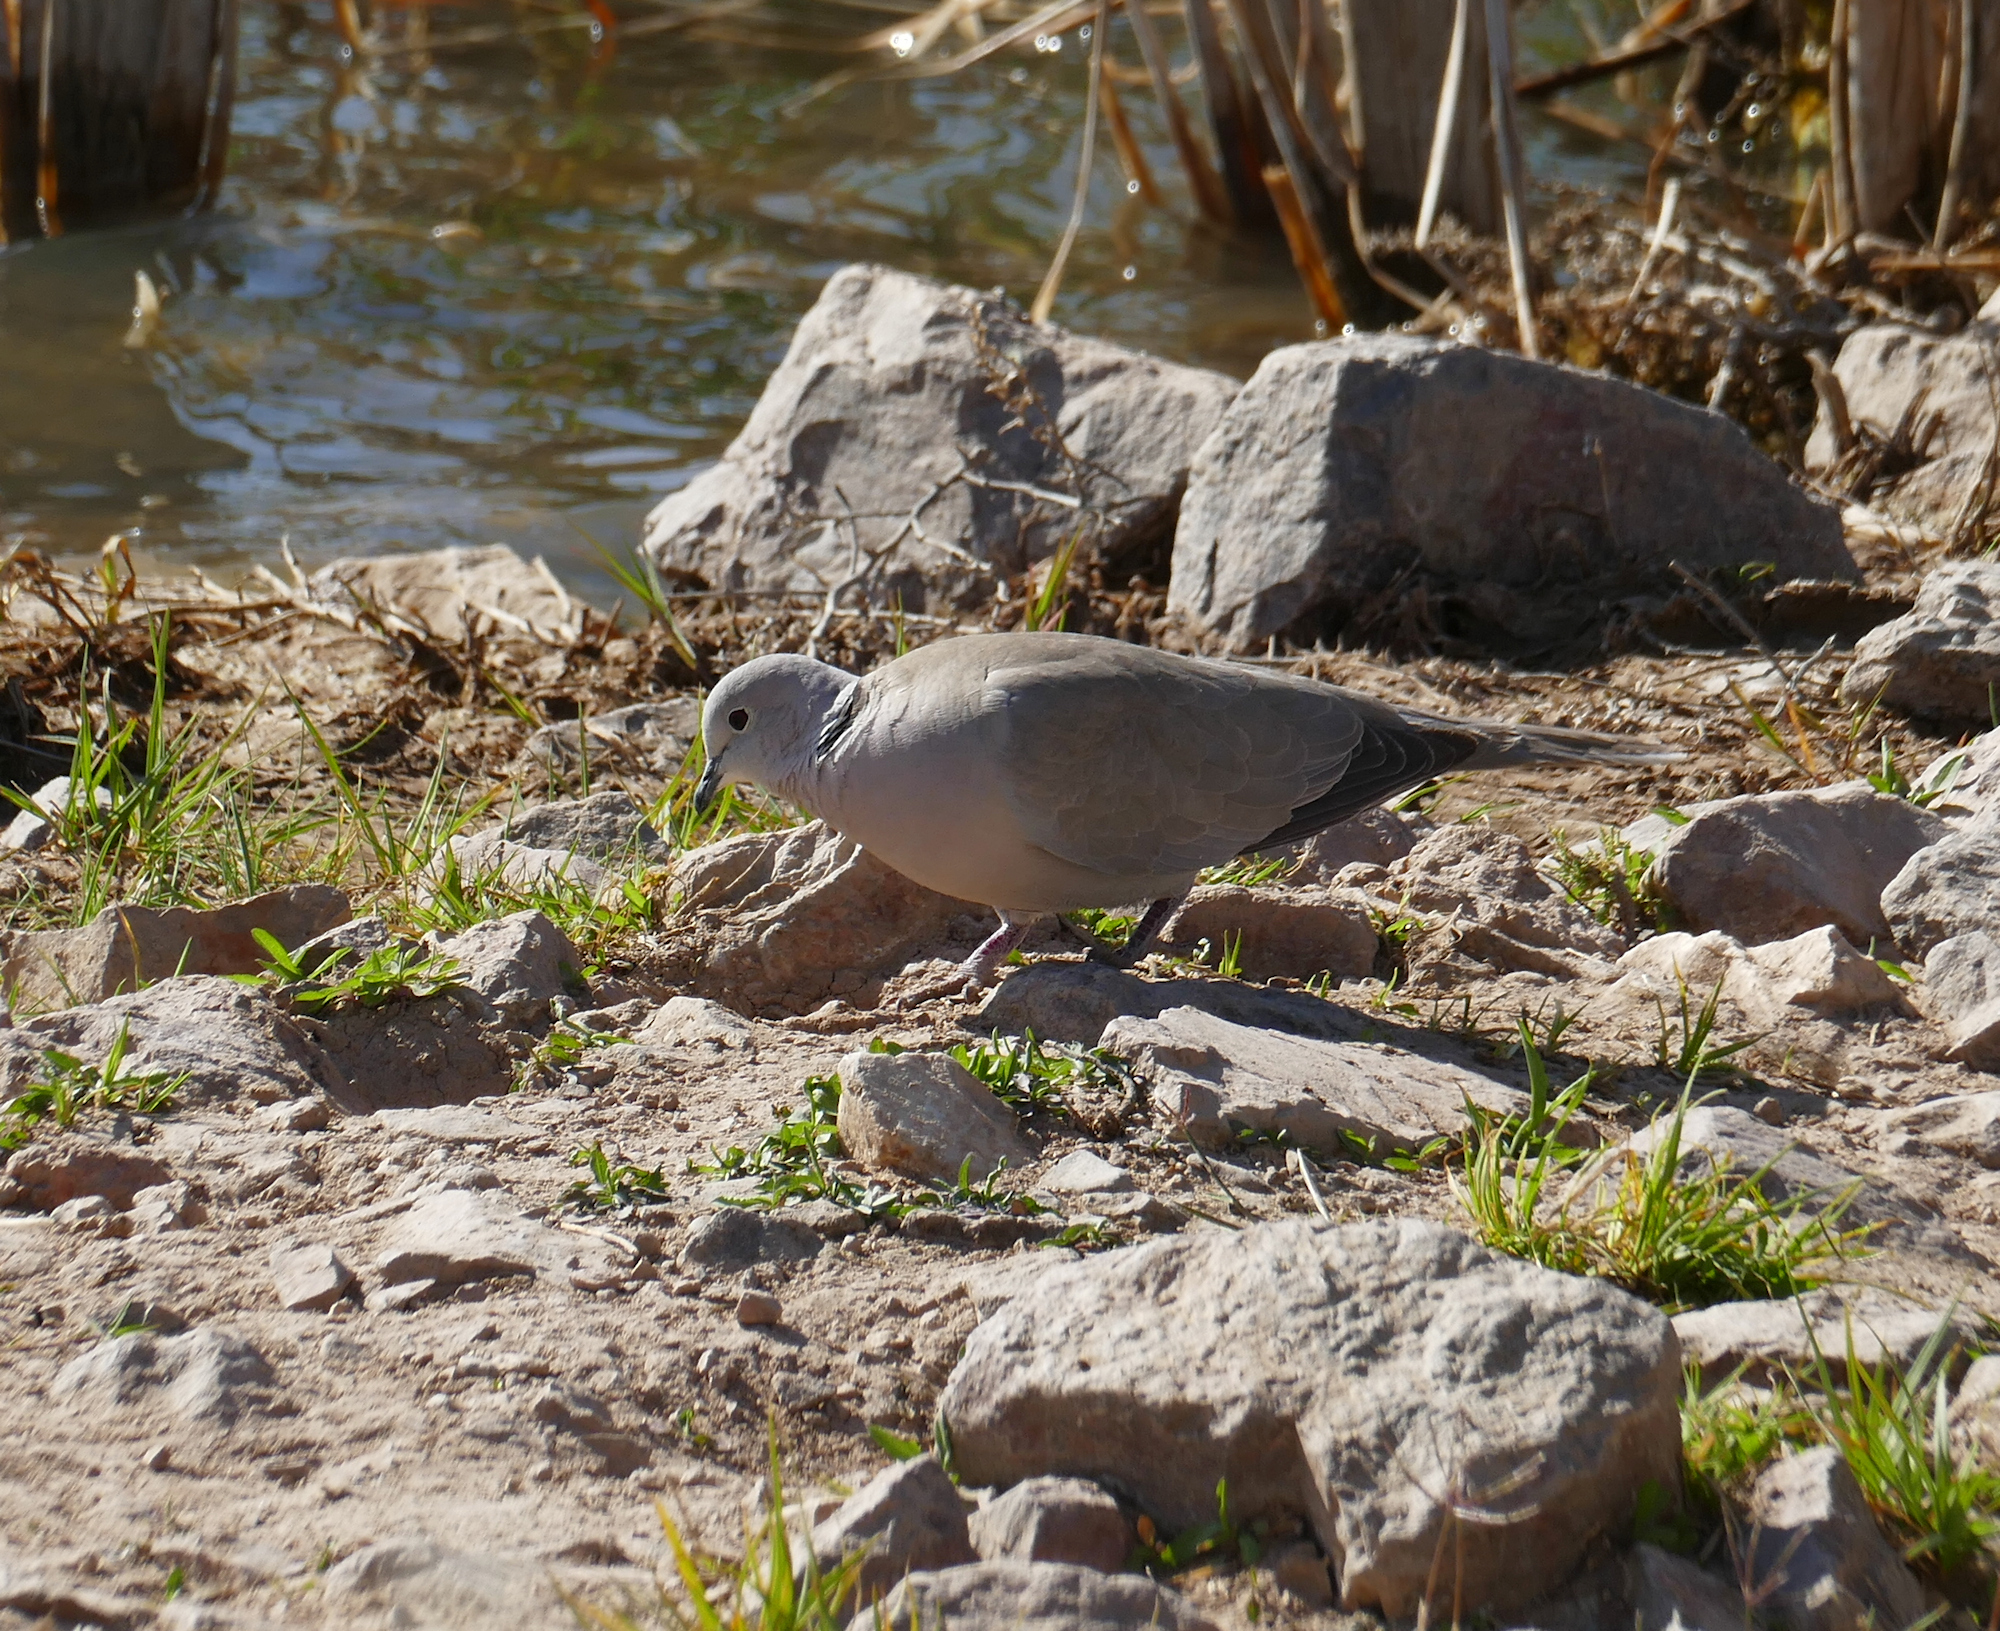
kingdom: Animalia
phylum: Chordata
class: Aves
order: Columbiformes
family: Columbidae
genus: Streptopelia
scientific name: Streptopelia decaocto
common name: Eurasian collared dove
